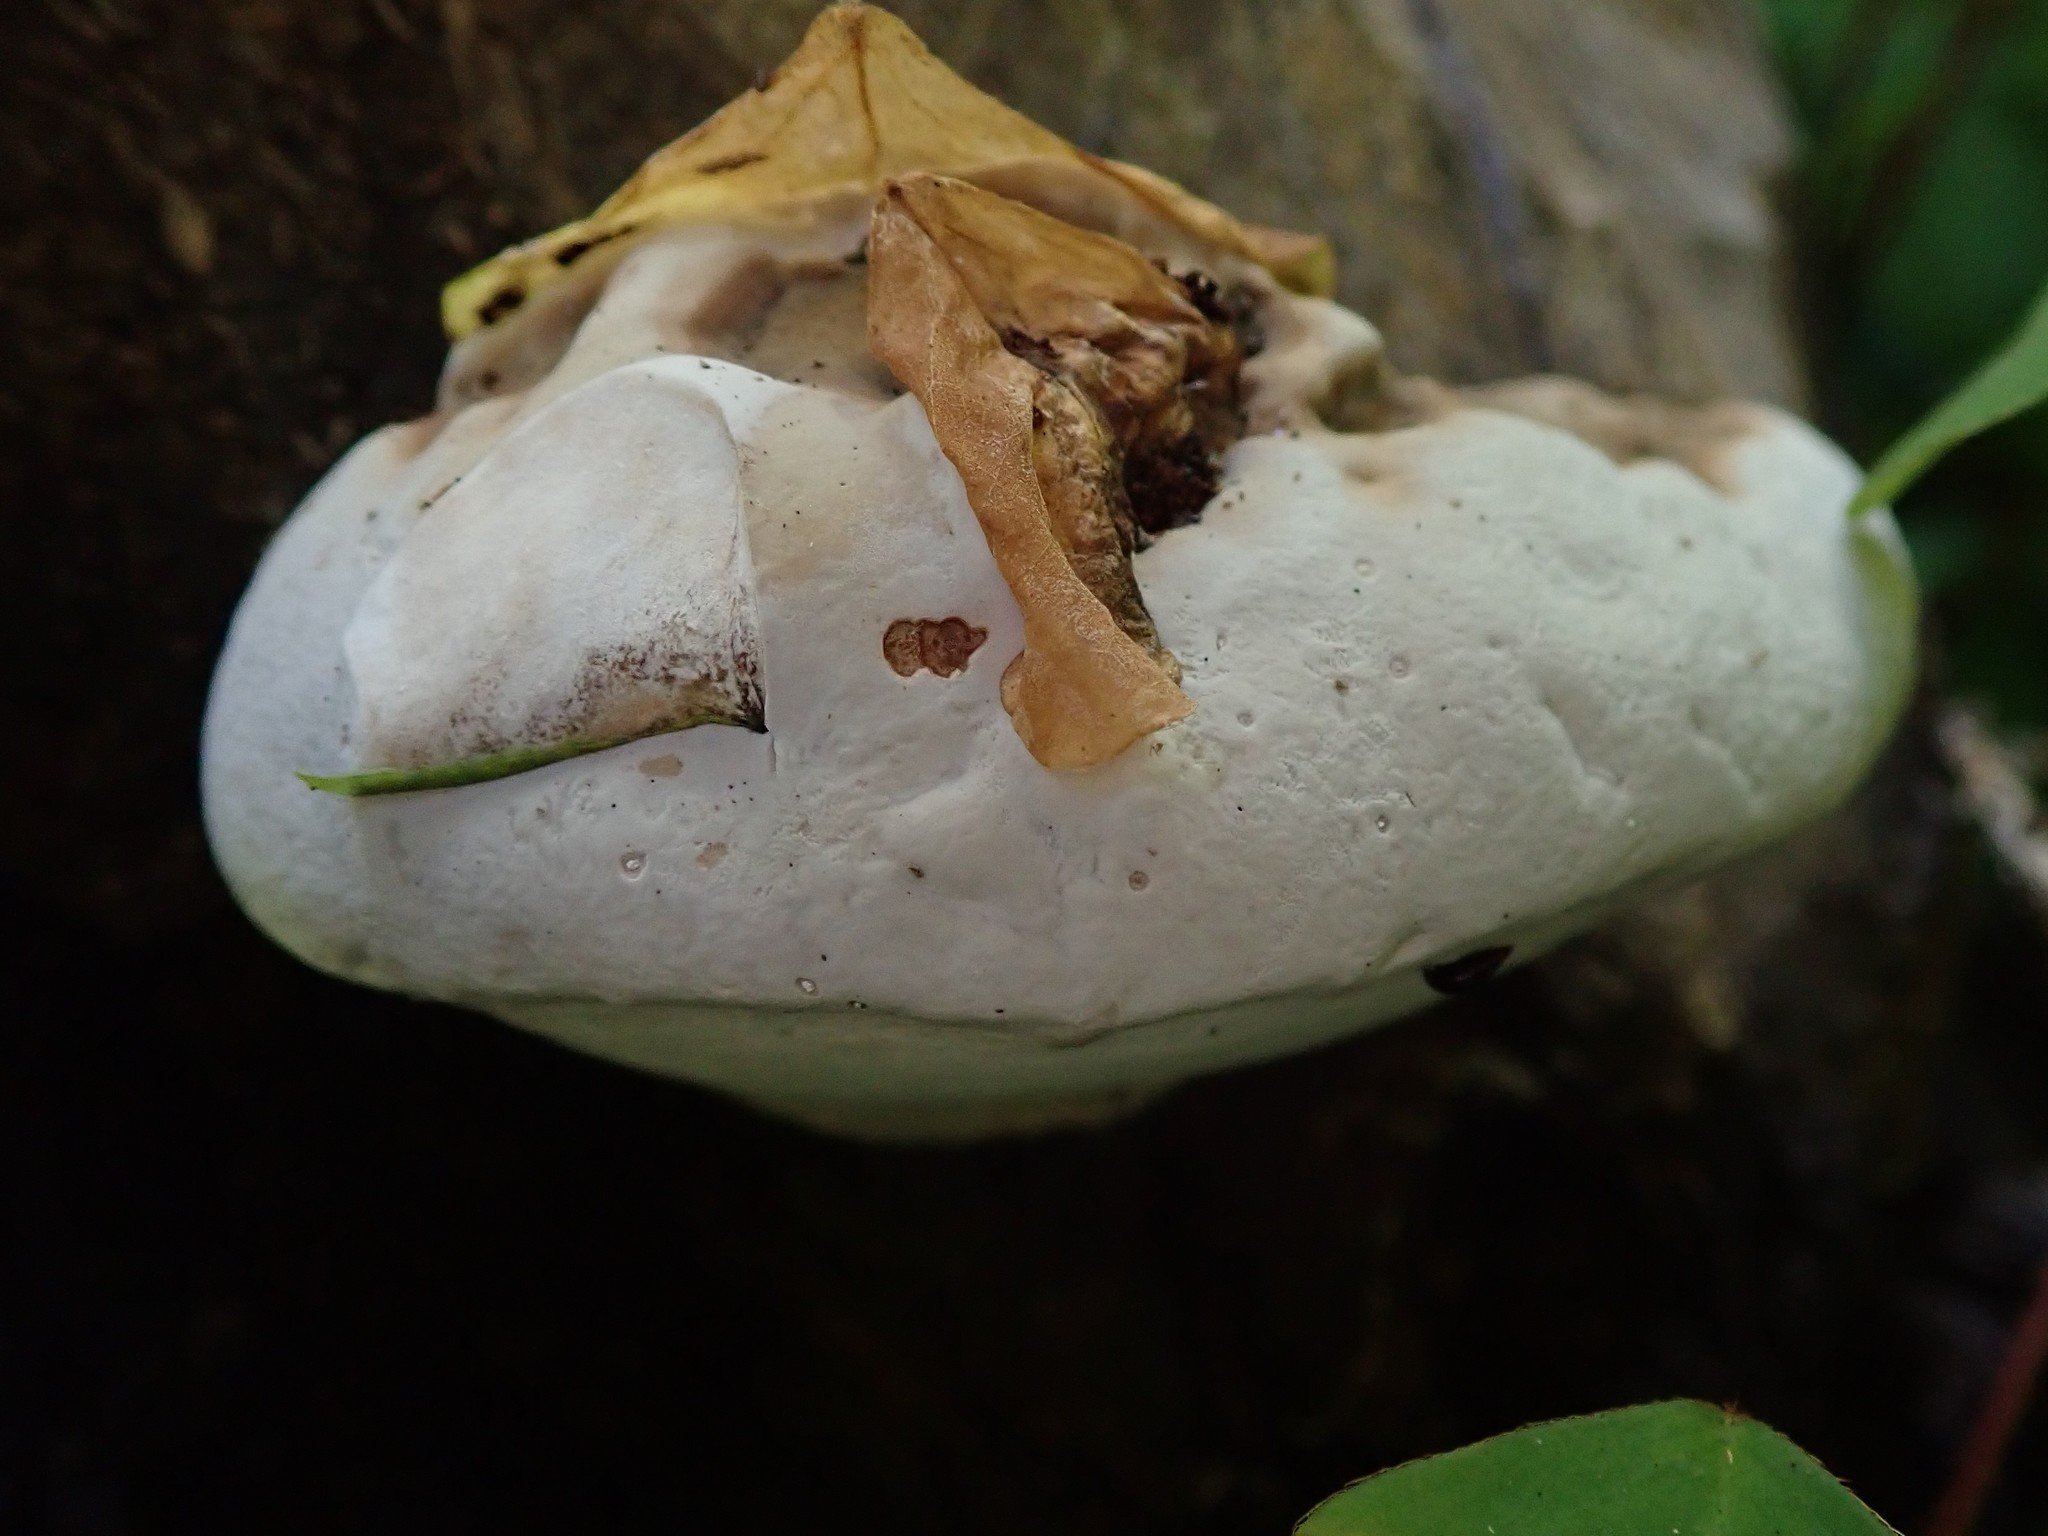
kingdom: Fungi
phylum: Basidiomycota
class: Agaricomycetes
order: Polyporales
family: Polyporaceae
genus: Ganoderma
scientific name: Ganoderma brownii
